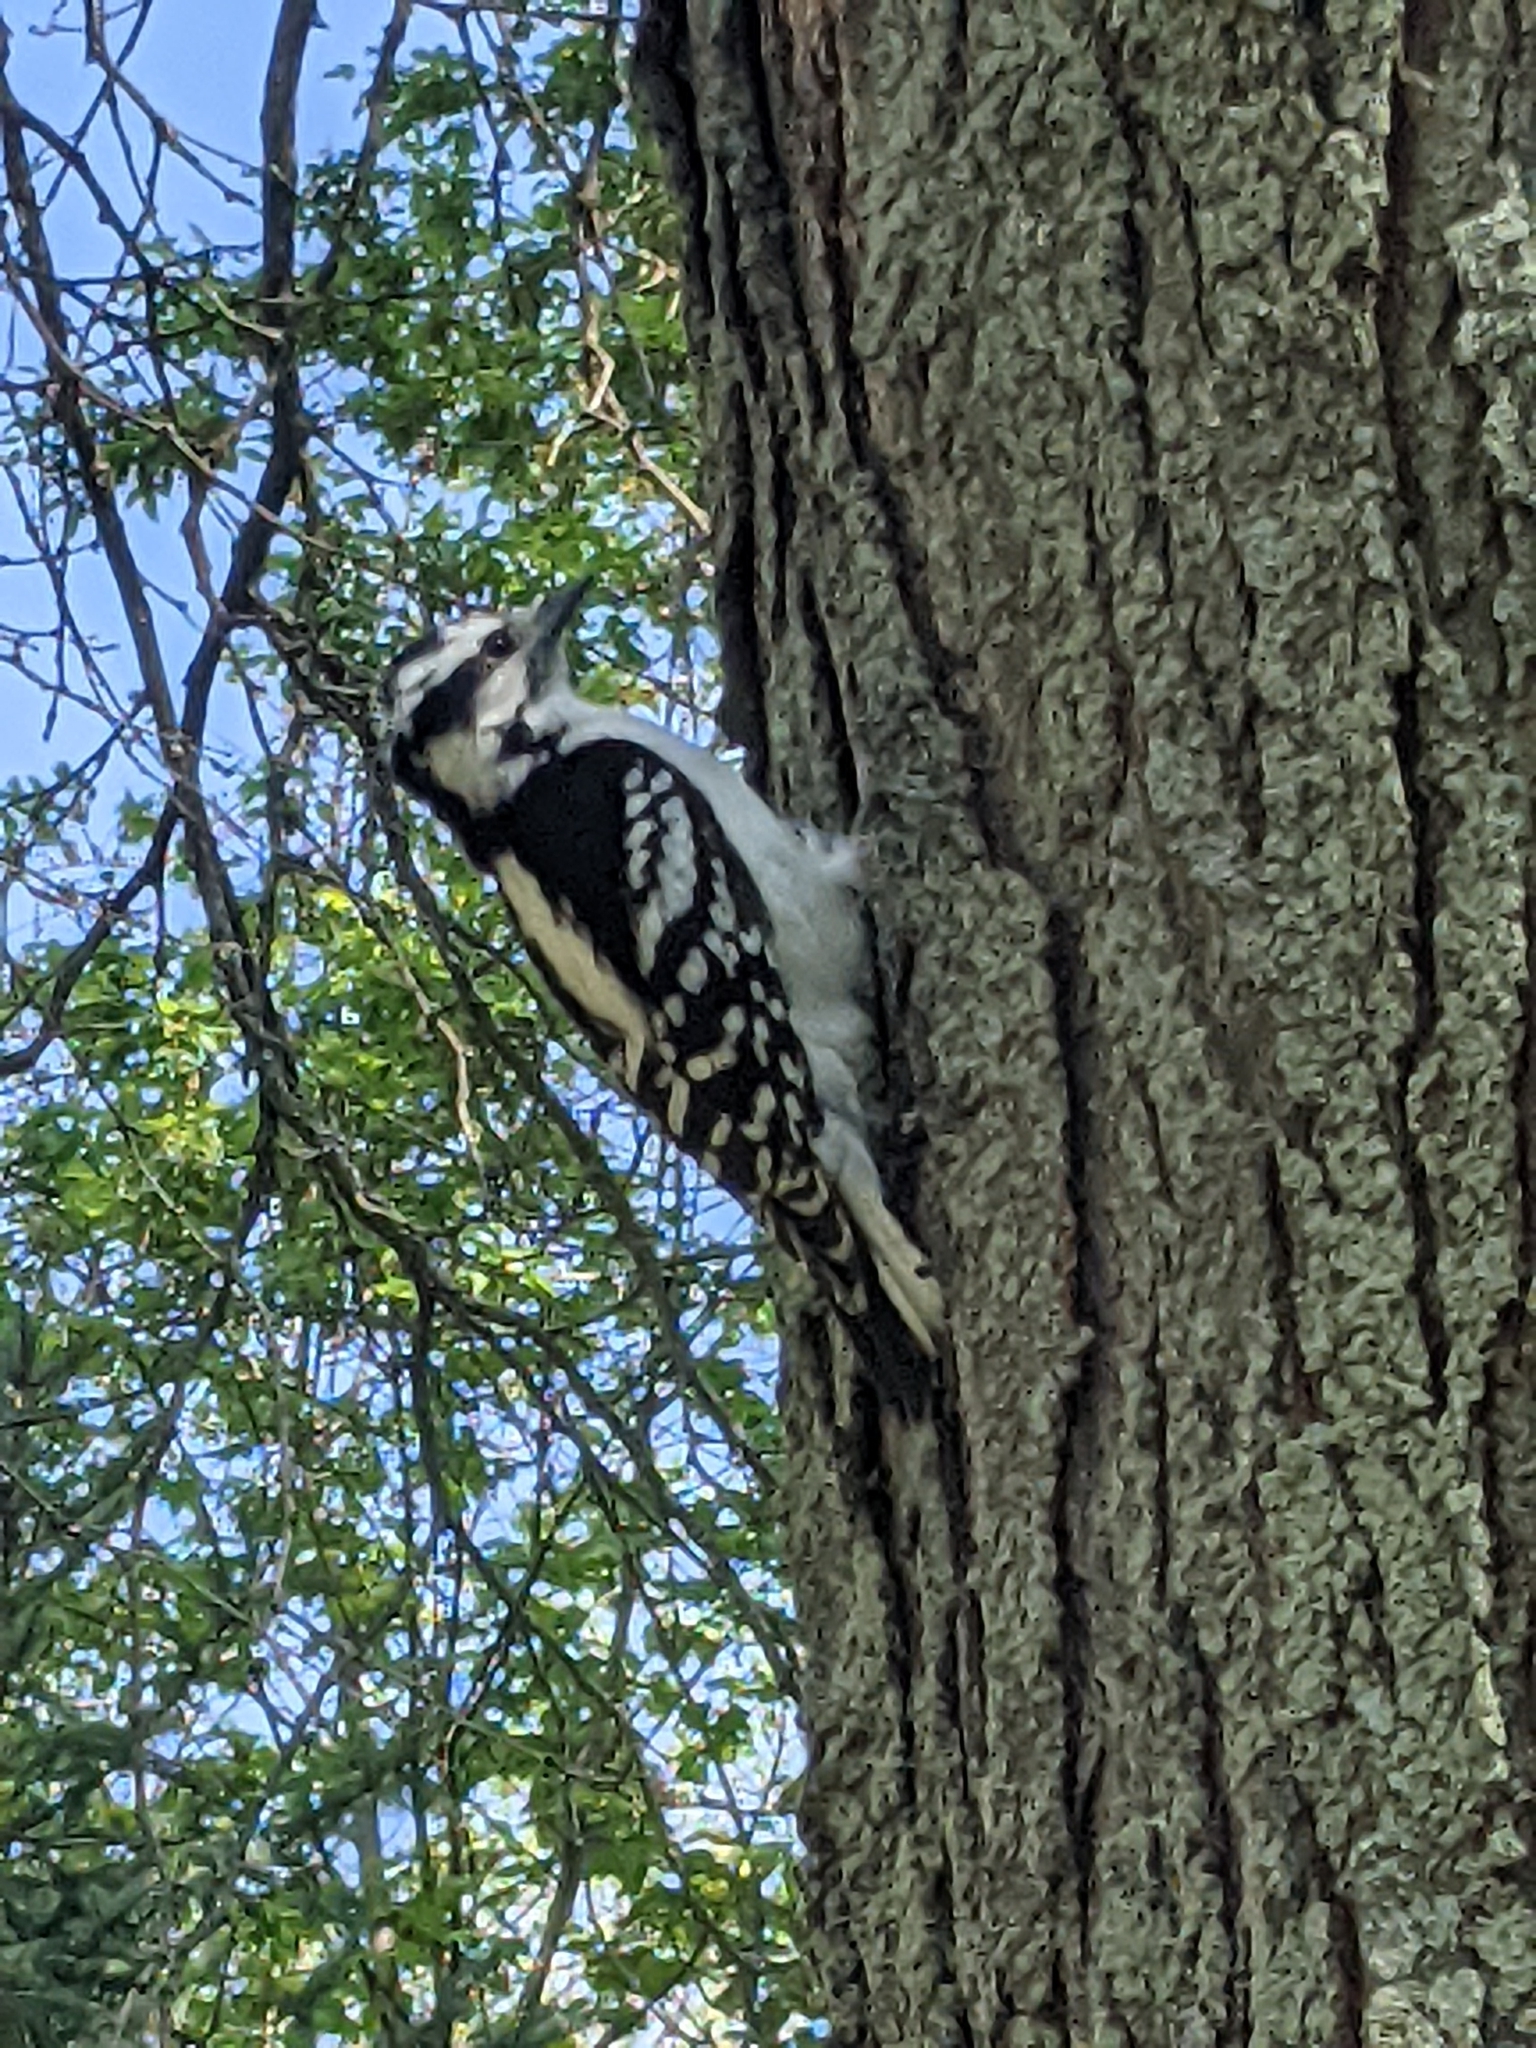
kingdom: Animalia
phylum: Chordata
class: Aves
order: Piciformes
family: Picidae
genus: Dryobates
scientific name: Dryobates pubescens
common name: Downy woodpecker
